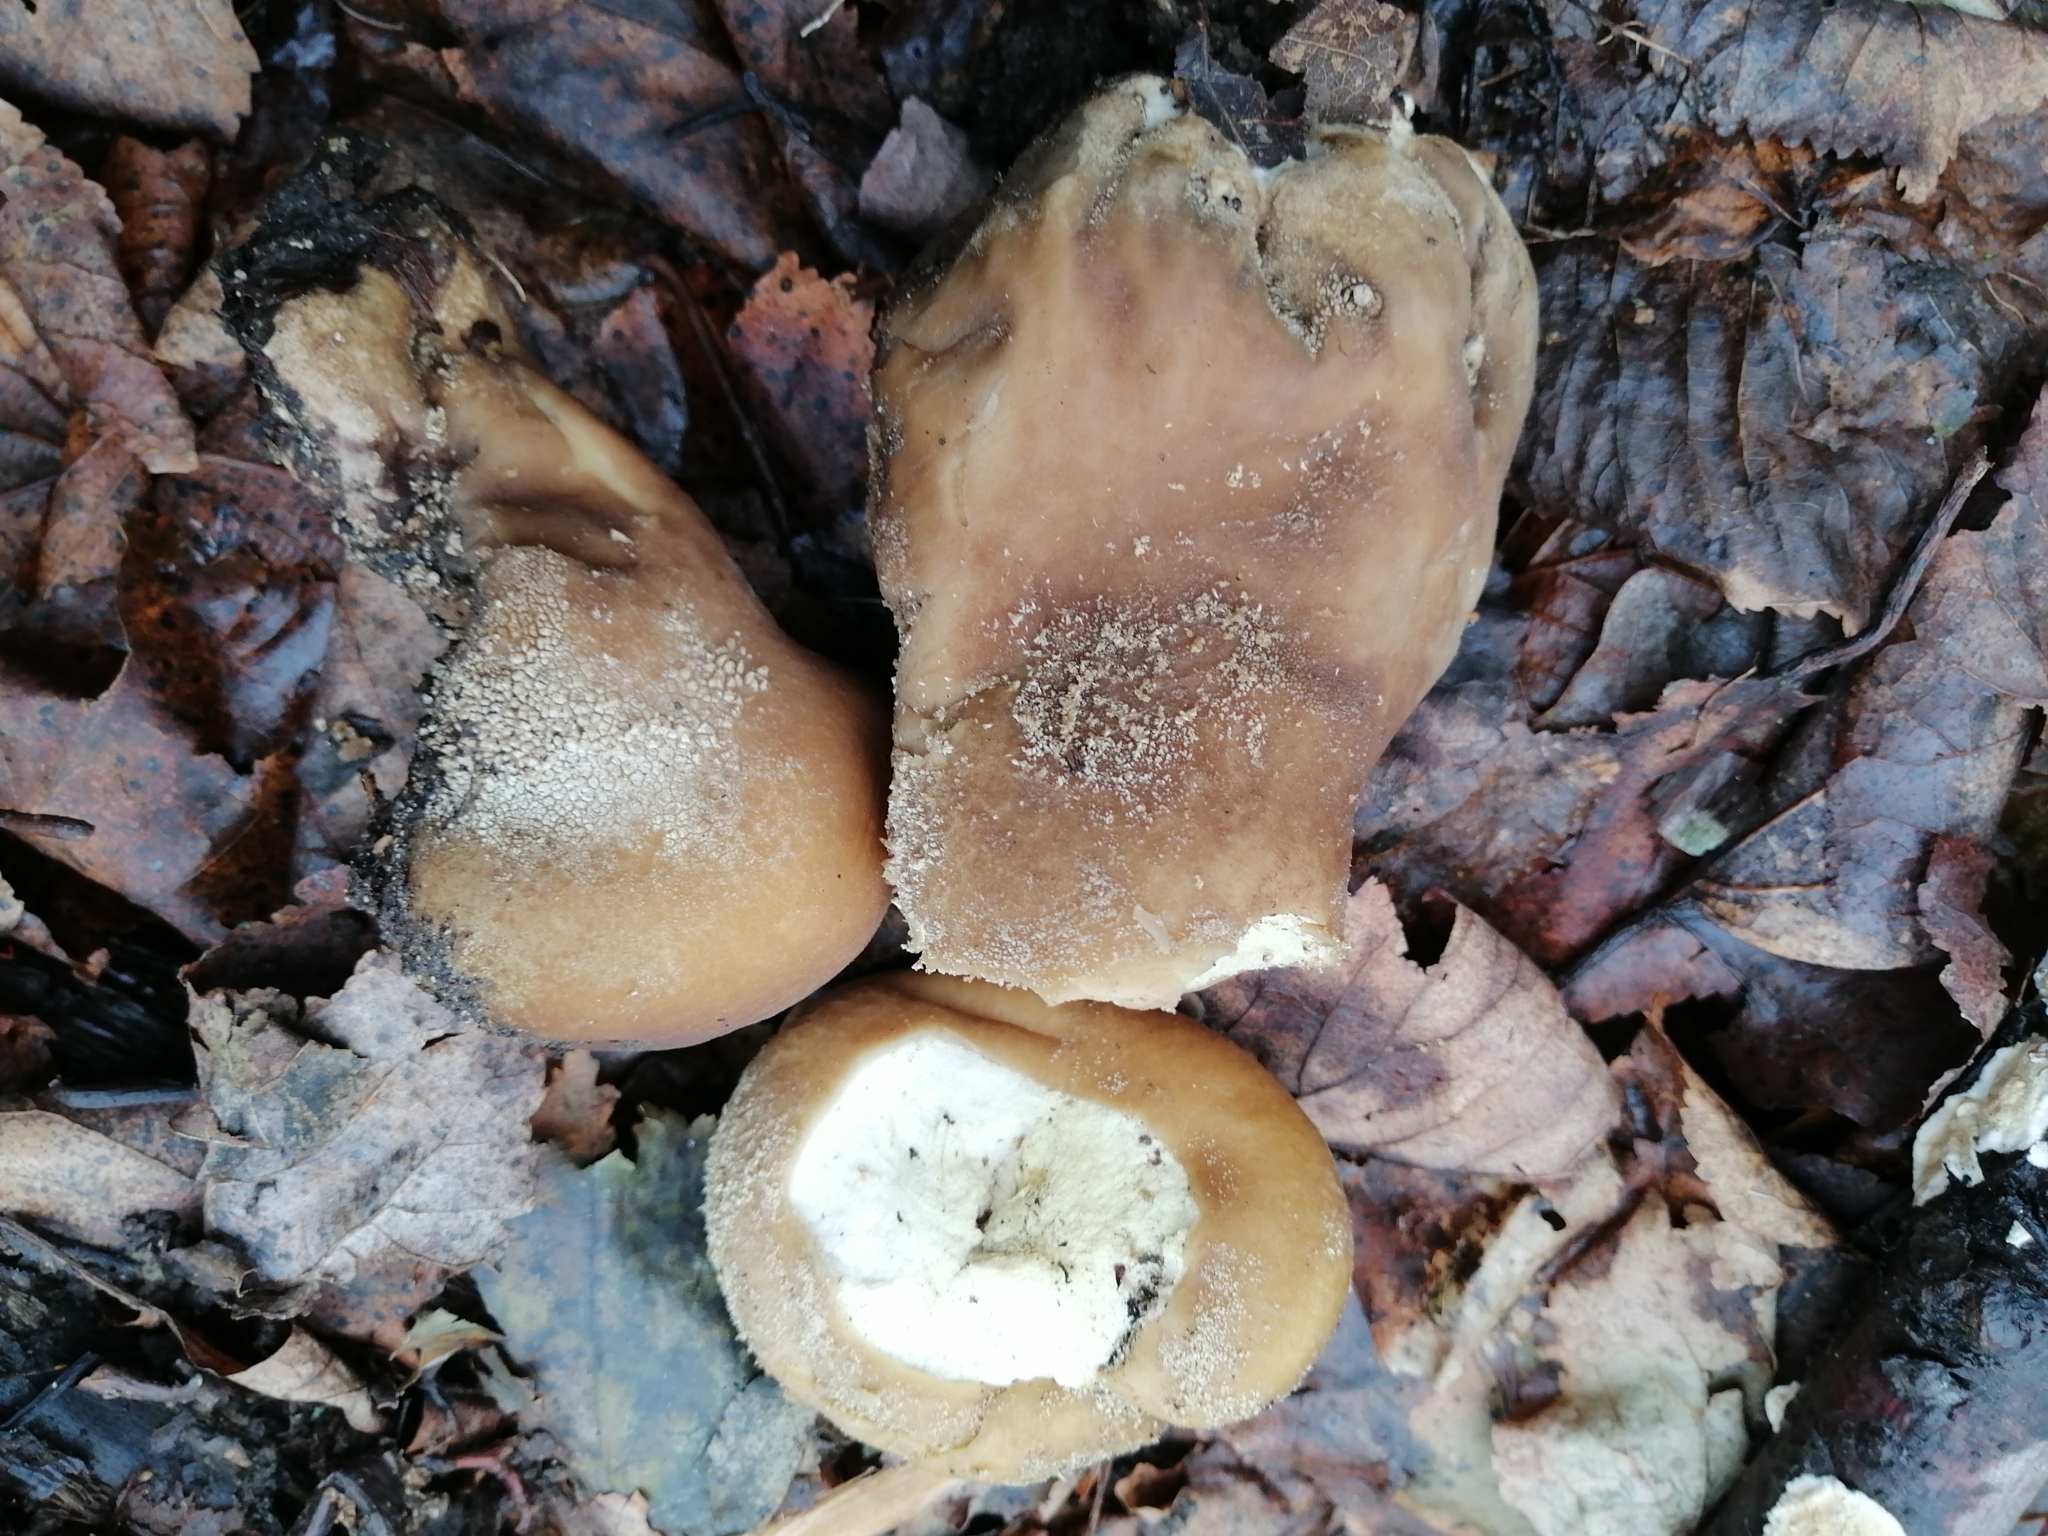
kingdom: Fungi
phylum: Basidiomycota
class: Agaricomycetes
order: Agaricales
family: Lycoperdaceae
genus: Lycoperdon
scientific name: Lycoperdon excipuliforme
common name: Pestle puffball
